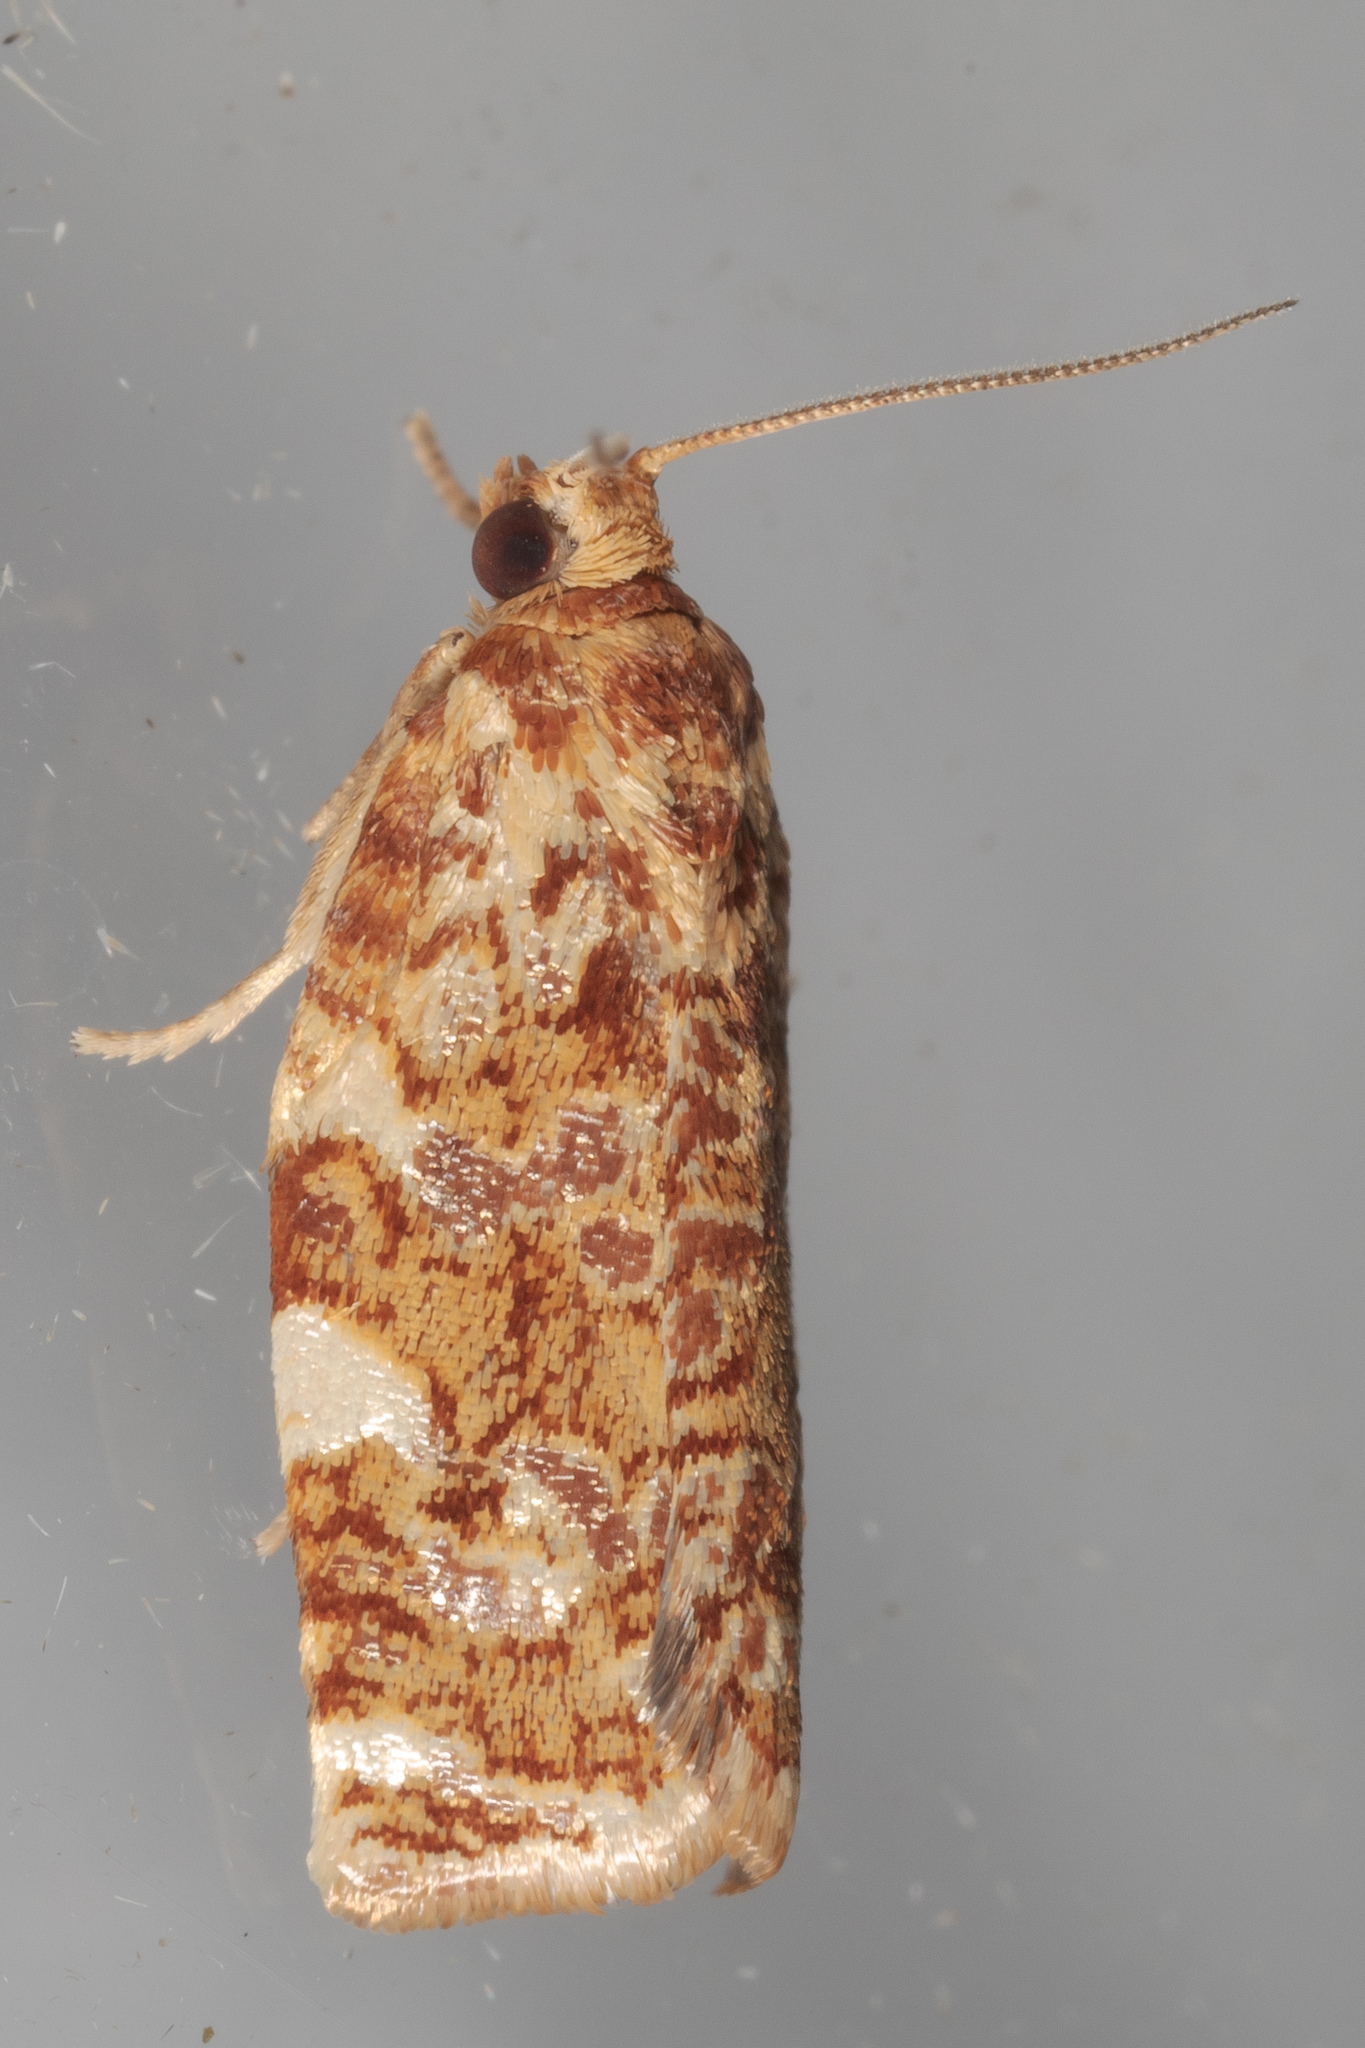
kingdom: Animalia
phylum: Arthropoda
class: Insecta
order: Lepidoptera
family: Tortricidae
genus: Archips
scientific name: Archips argyrospila
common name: Fruit-tree leafroller moth
